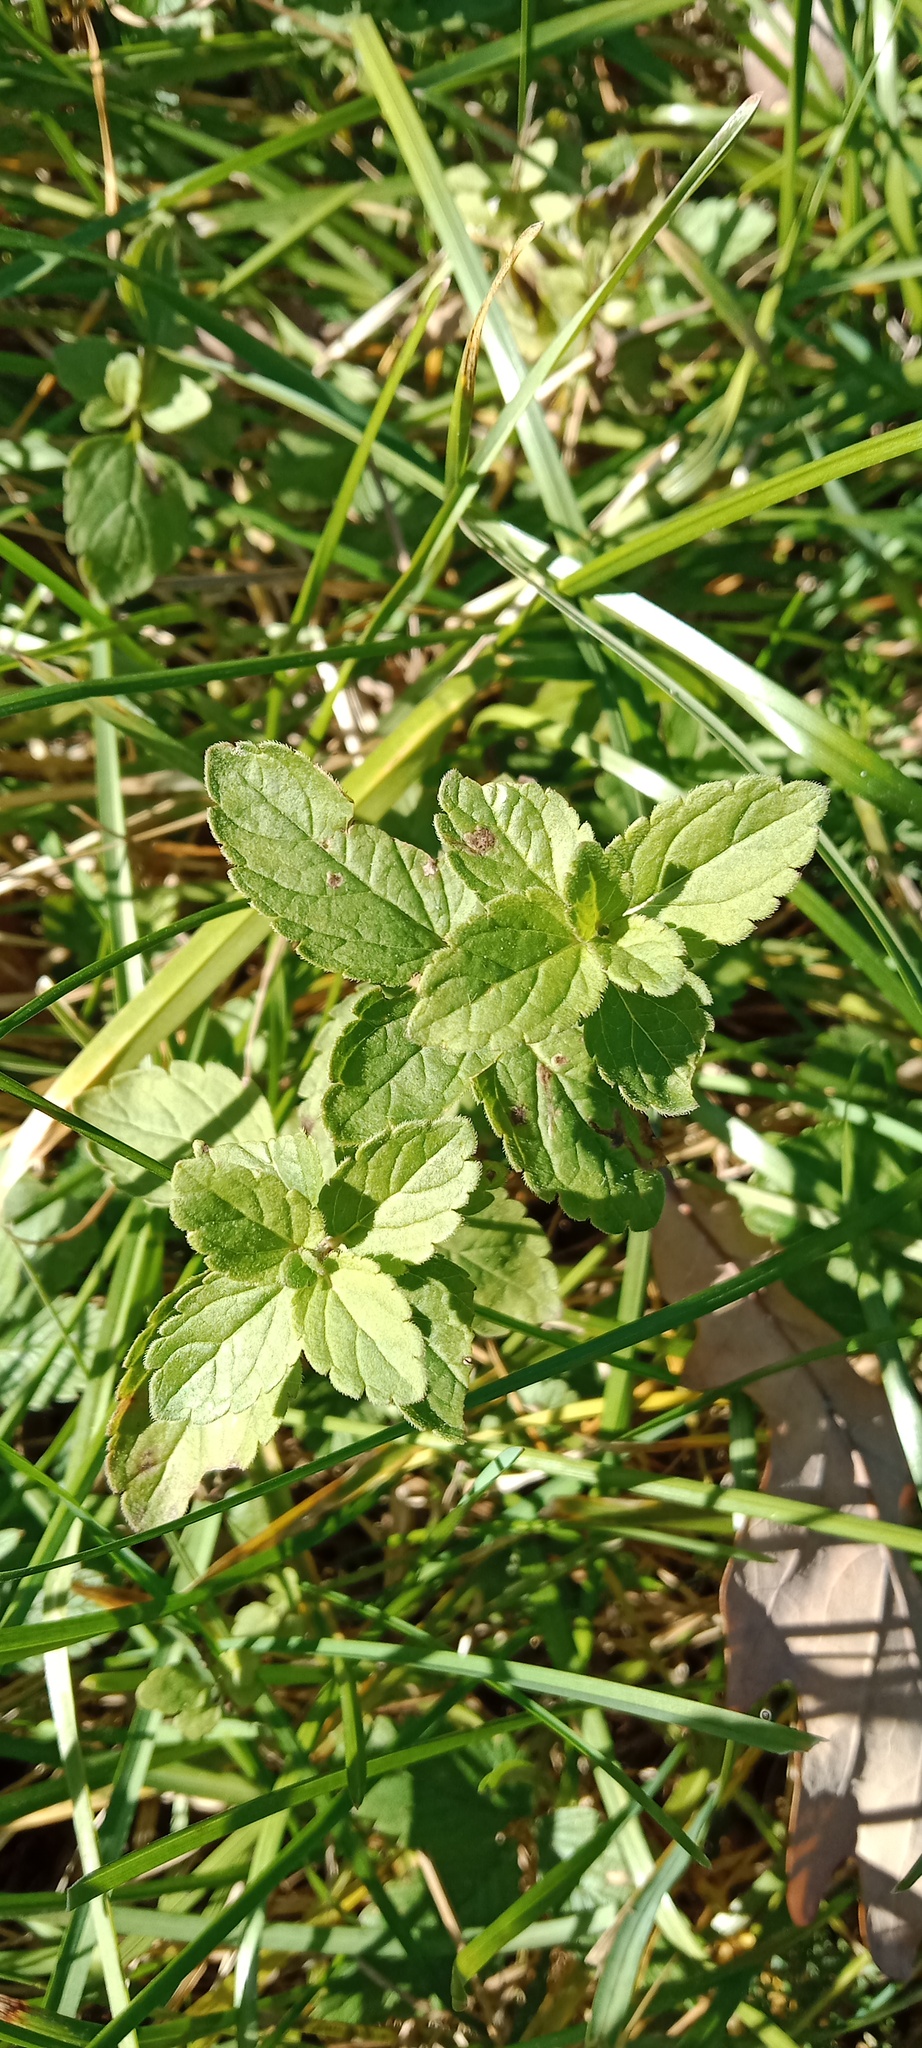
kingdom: Plantae
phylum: Tracheophyta
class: Magnoliopsida
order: Lamiales
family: Plantaginaceae
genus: Veronica
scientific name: Veronica chamaedrys
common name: Germander speedwell
